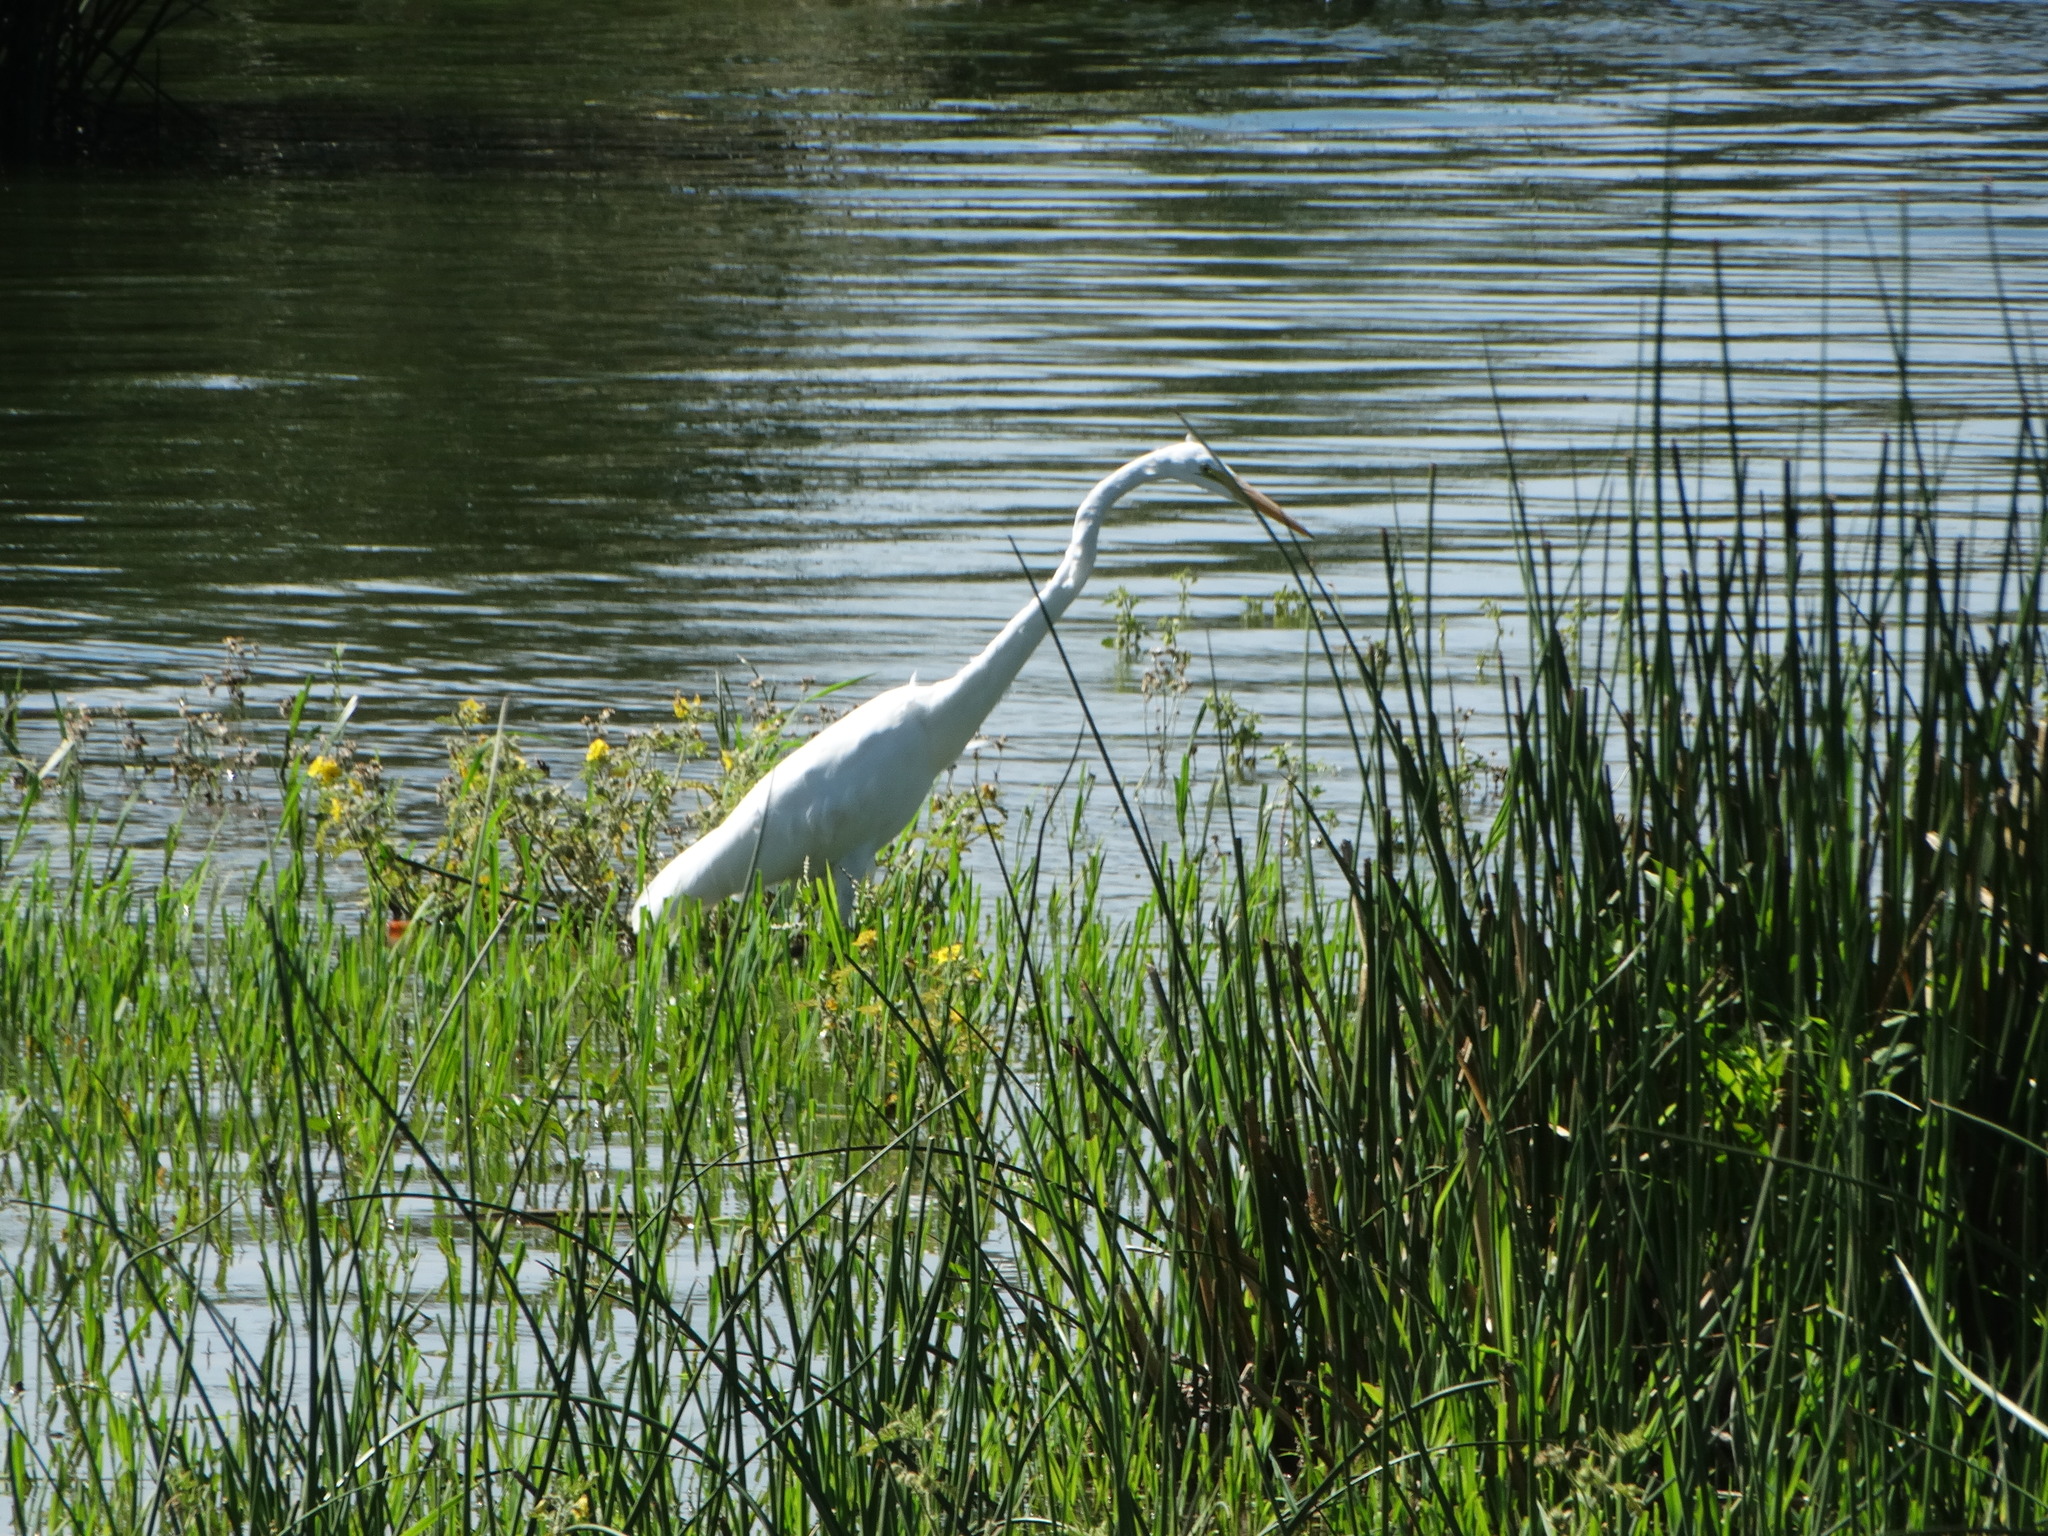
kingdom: Animalia
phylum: Chordata
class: Aves
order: Pelecaniformes
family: Ardeidae
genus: Ardea
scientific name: Ardea alba
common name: Great egret
